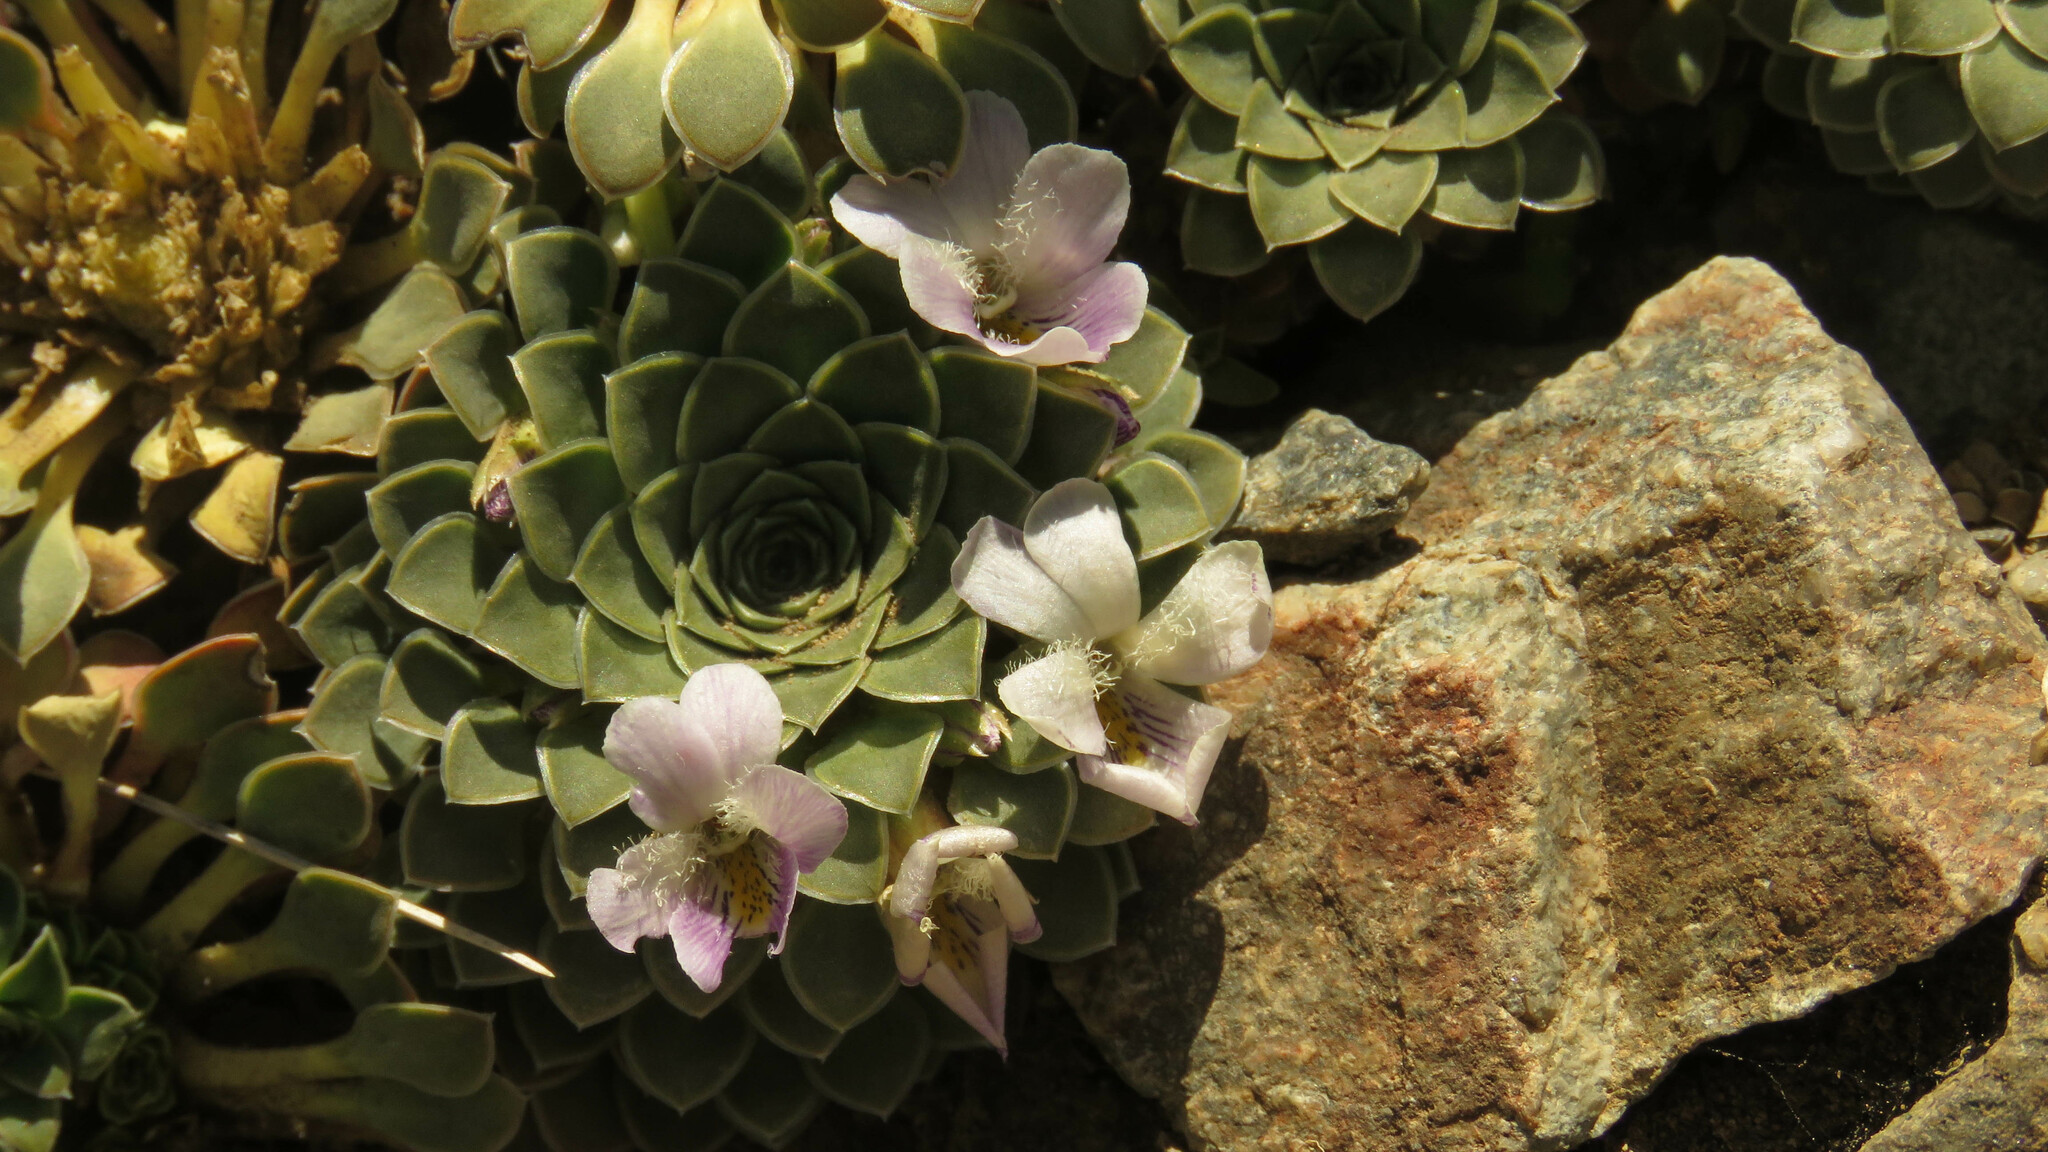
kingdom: Plantae
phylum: Tracheophyta
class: Magnoliopsida
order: Malpighiales
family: Violaceae
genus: Viola
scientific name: Viola petraea
